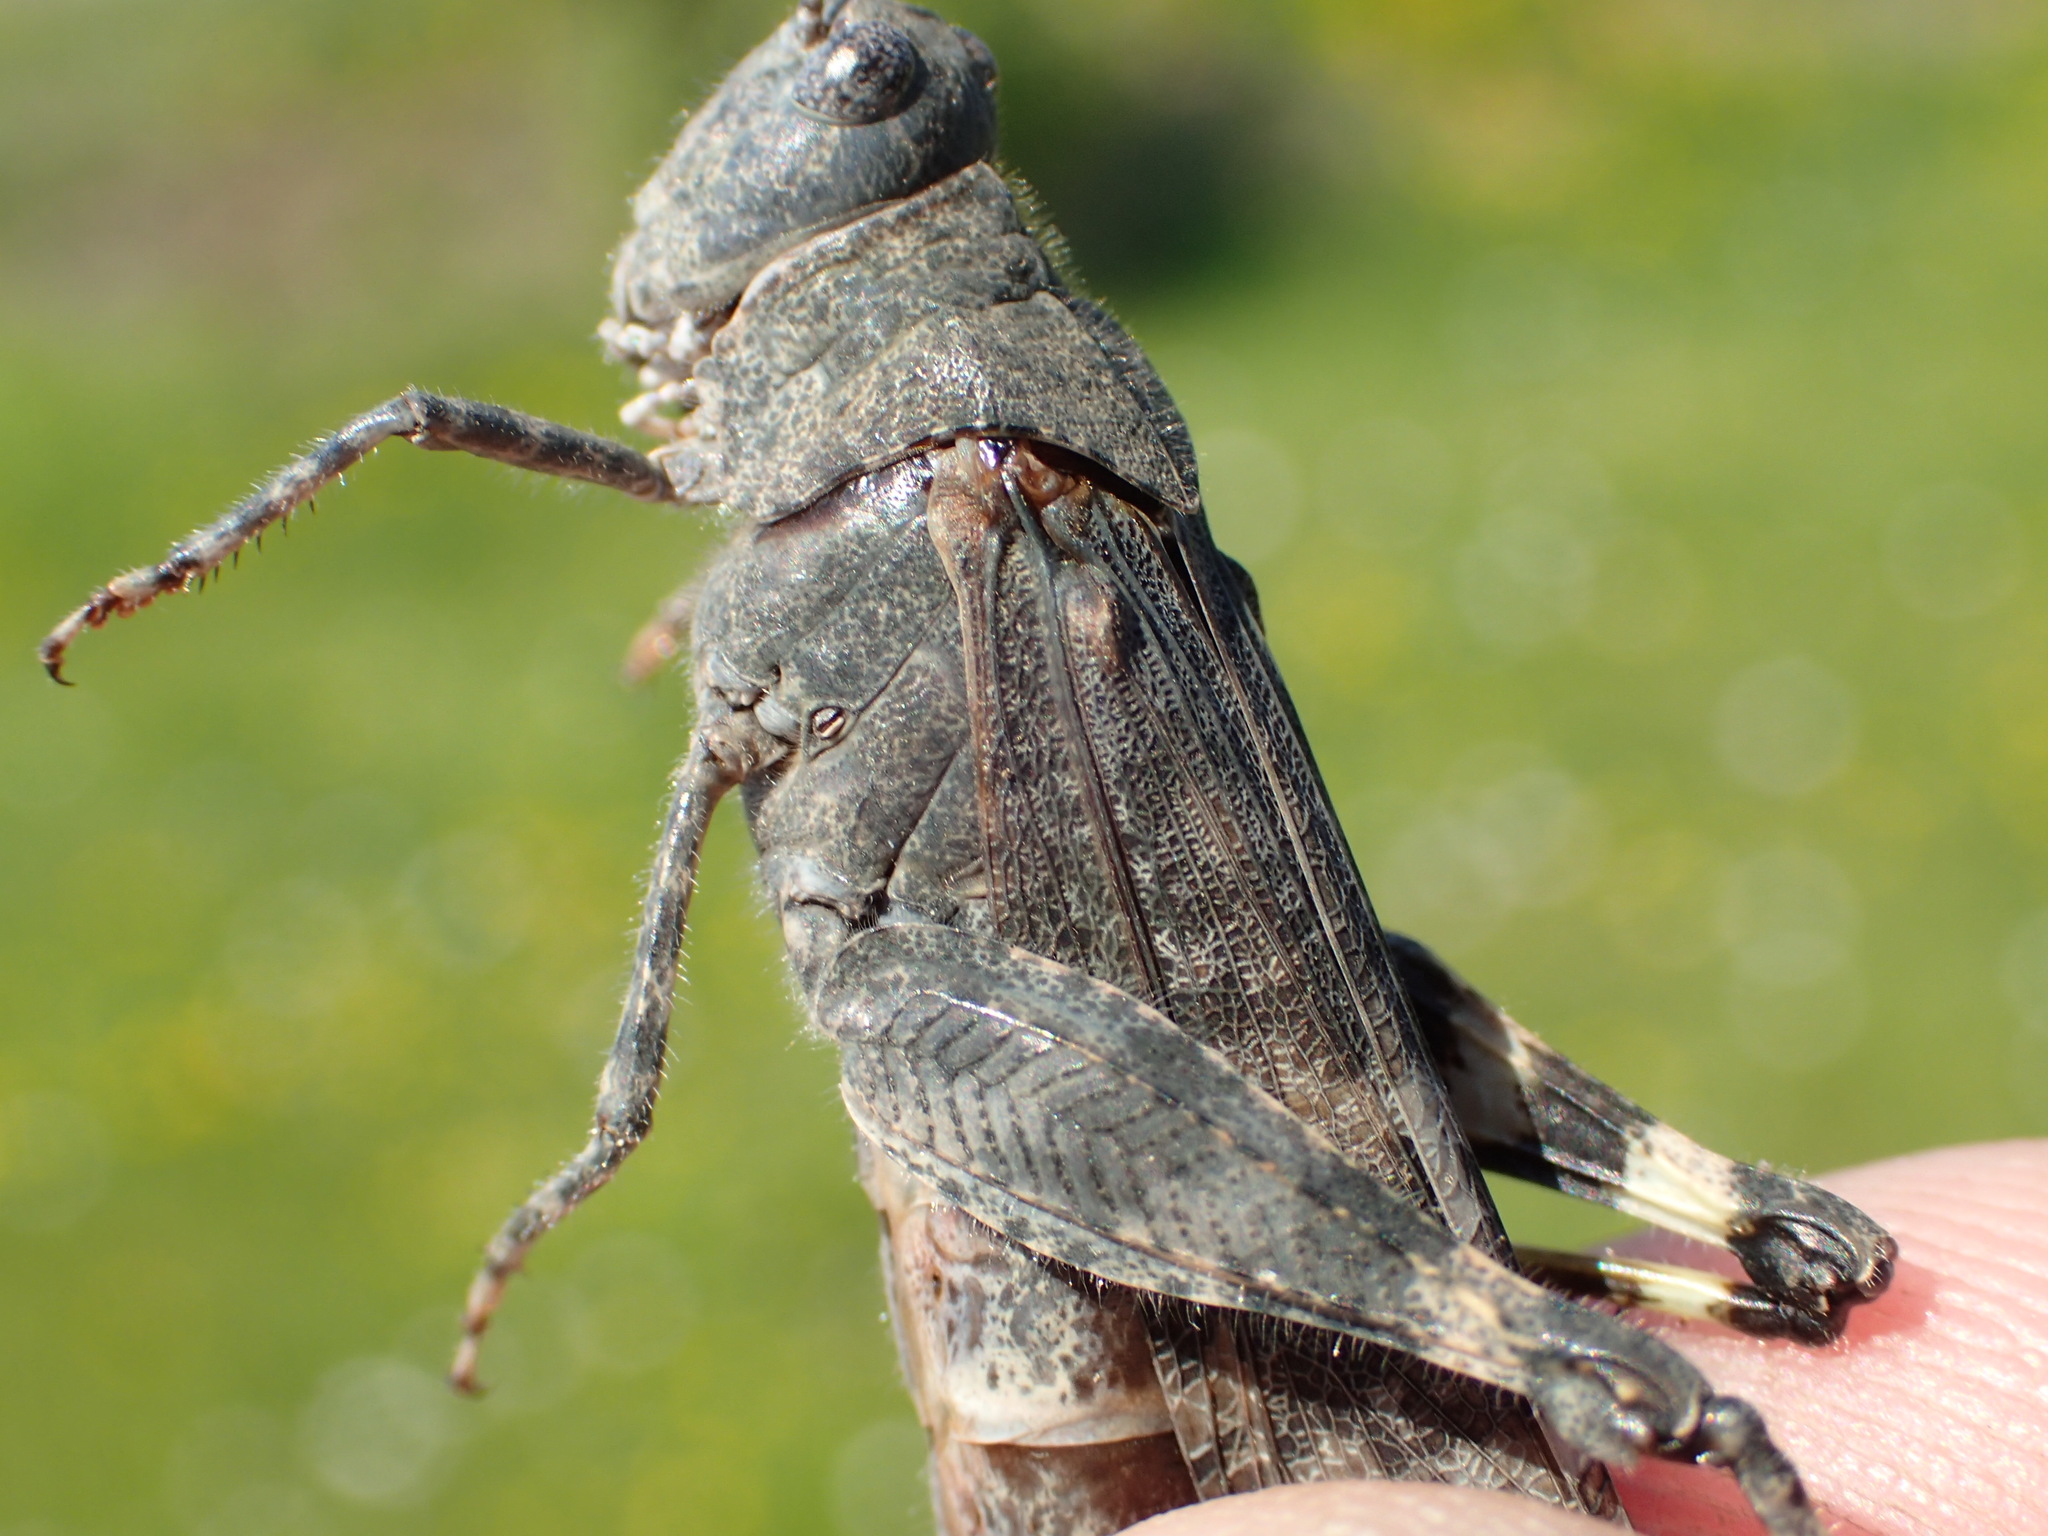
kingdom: Animalia
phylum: Arthropoda
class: Insecta
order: Orthoptera
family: Acrididae
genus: Trimerotropis
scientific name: Trimerotropis verruculata
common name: Crackling forest grasshopper
